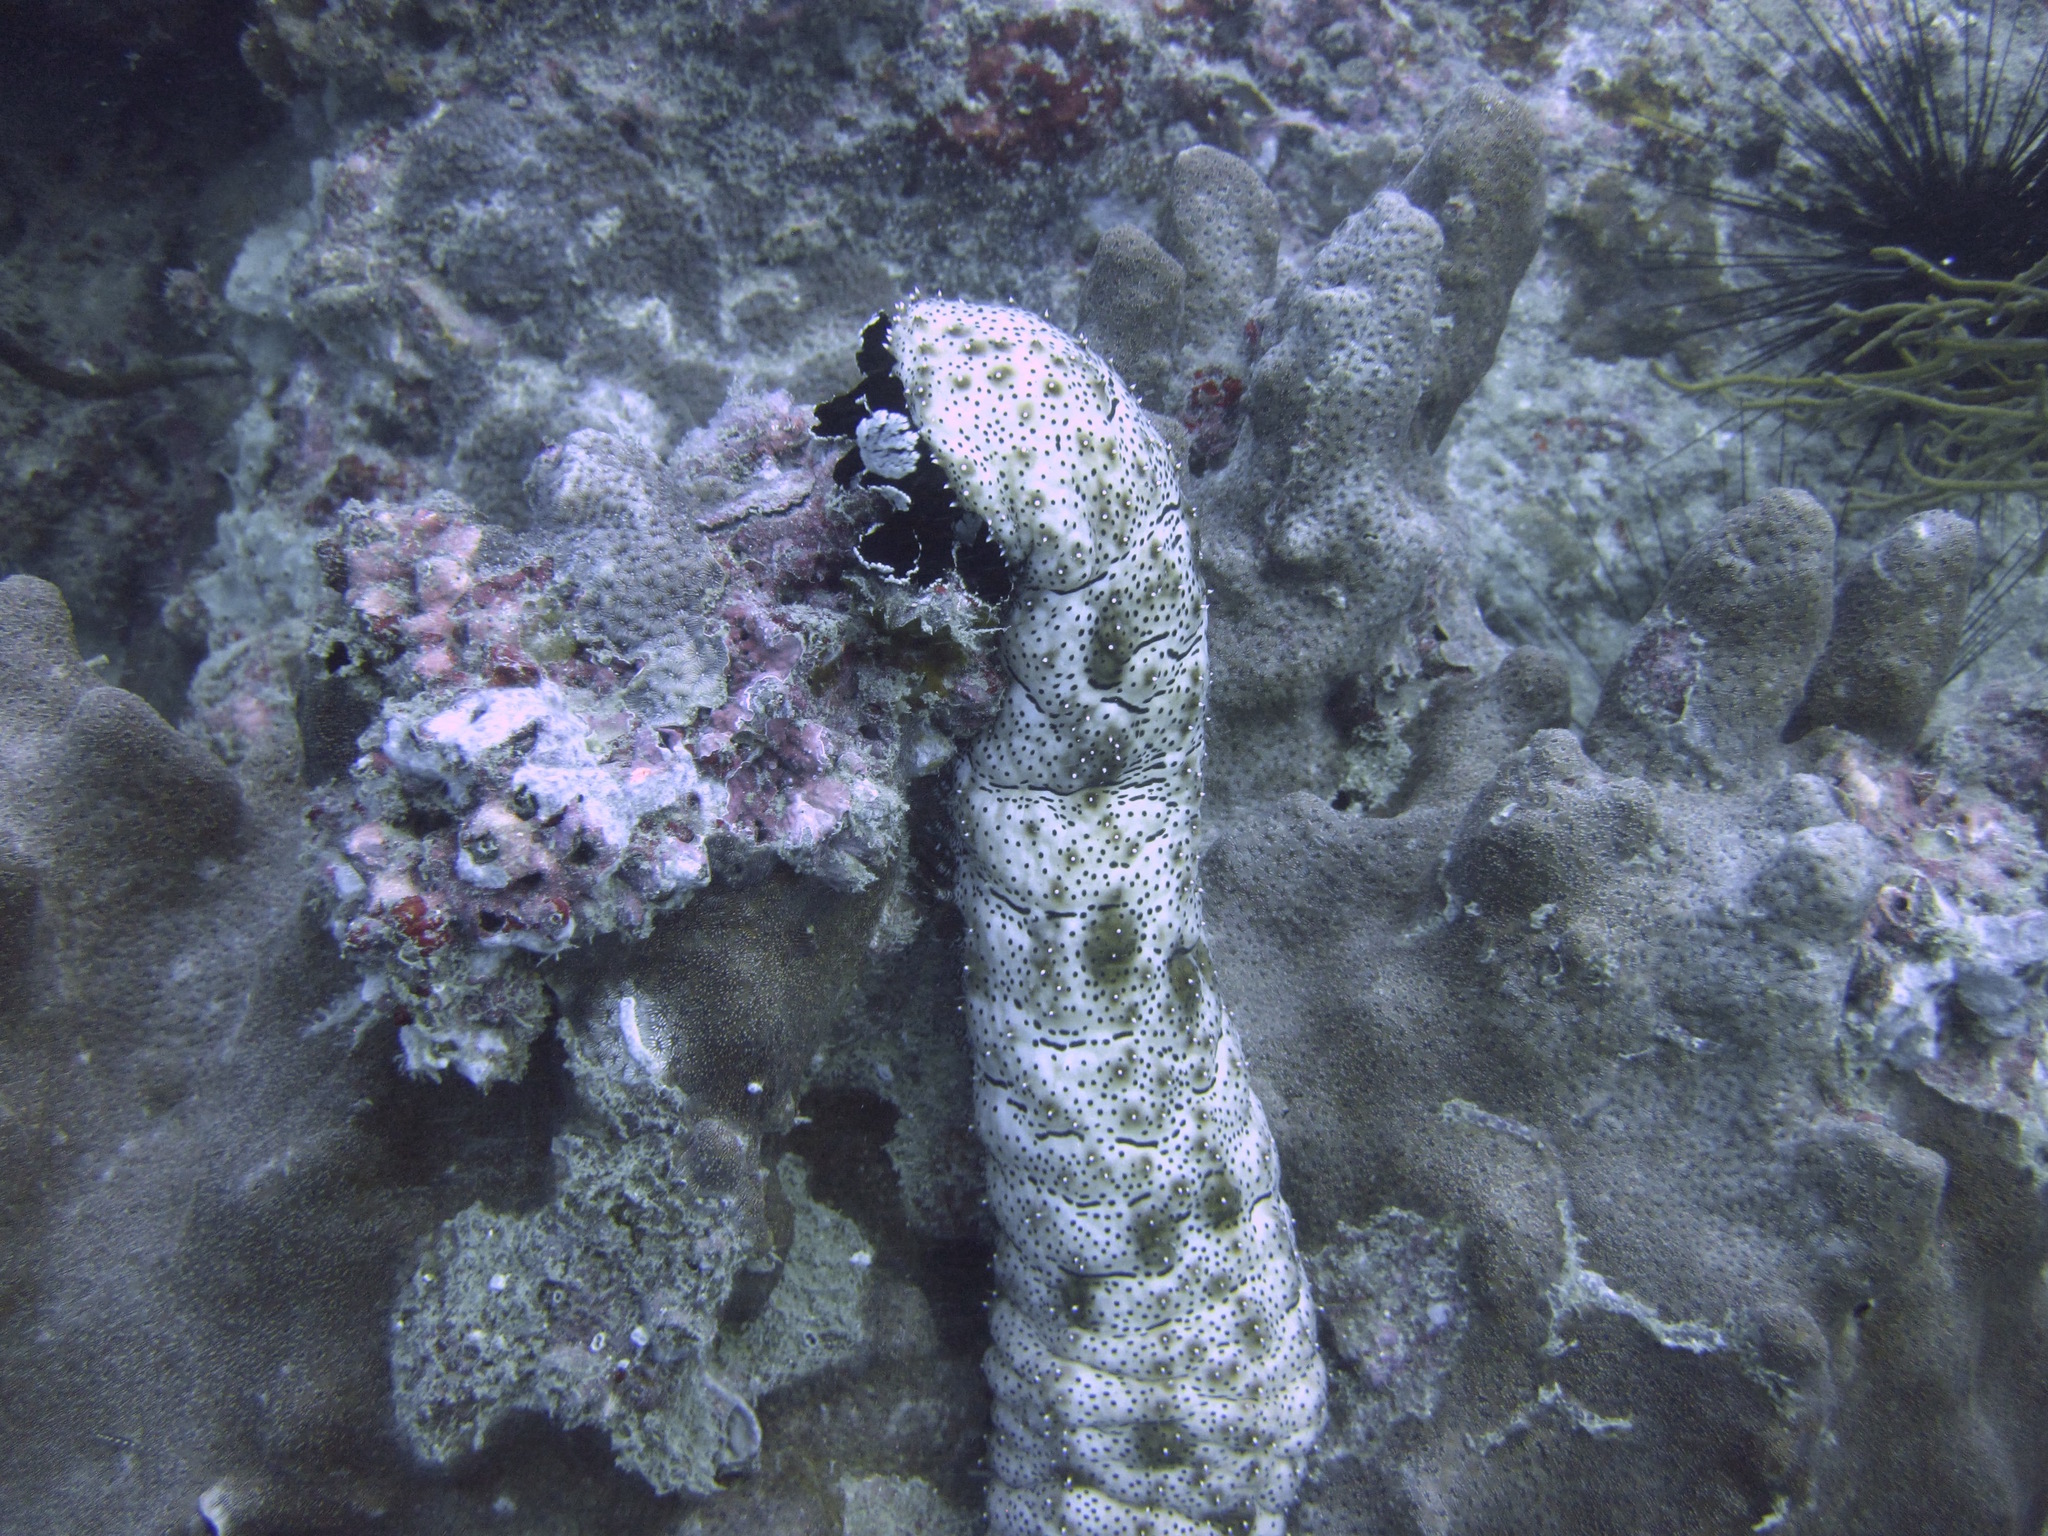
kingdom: Animalia
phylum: Echinodermata
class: Holothuroidea
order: Holothuriida
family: Holothuriidae
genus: Pearsonothuria
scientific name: Pearsonothuria graeffei
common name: Blackspotted sea cucumber
